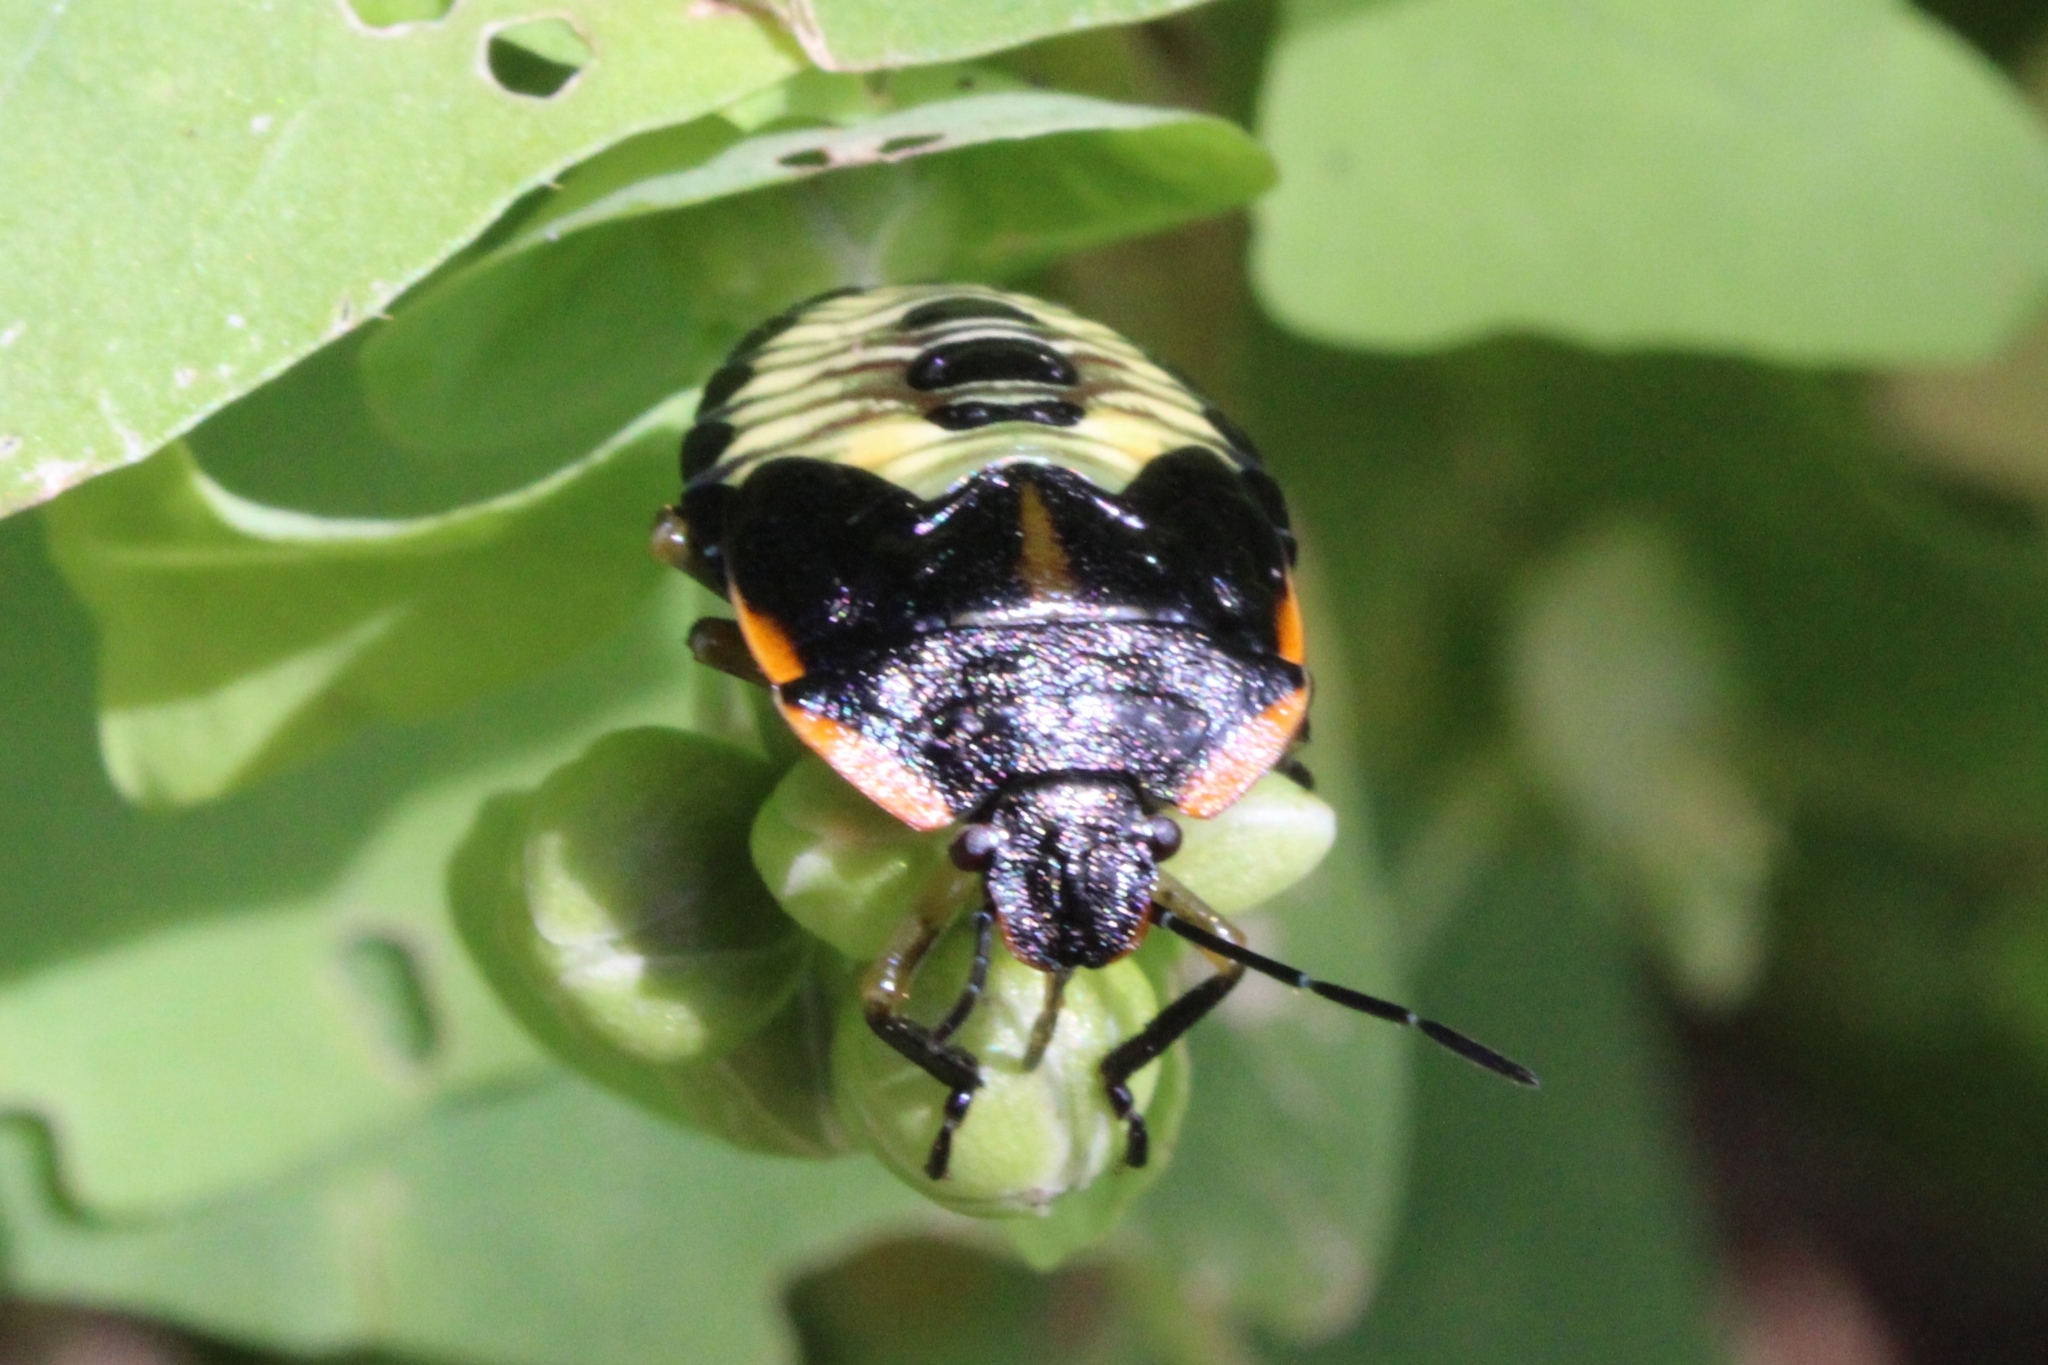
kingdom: Animalia
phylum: Arthropoda
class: Insecta
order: Hemiptera
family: Pentatomidae
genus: Chinavia
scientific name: Chinavia hilaris
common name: Green stink bug
